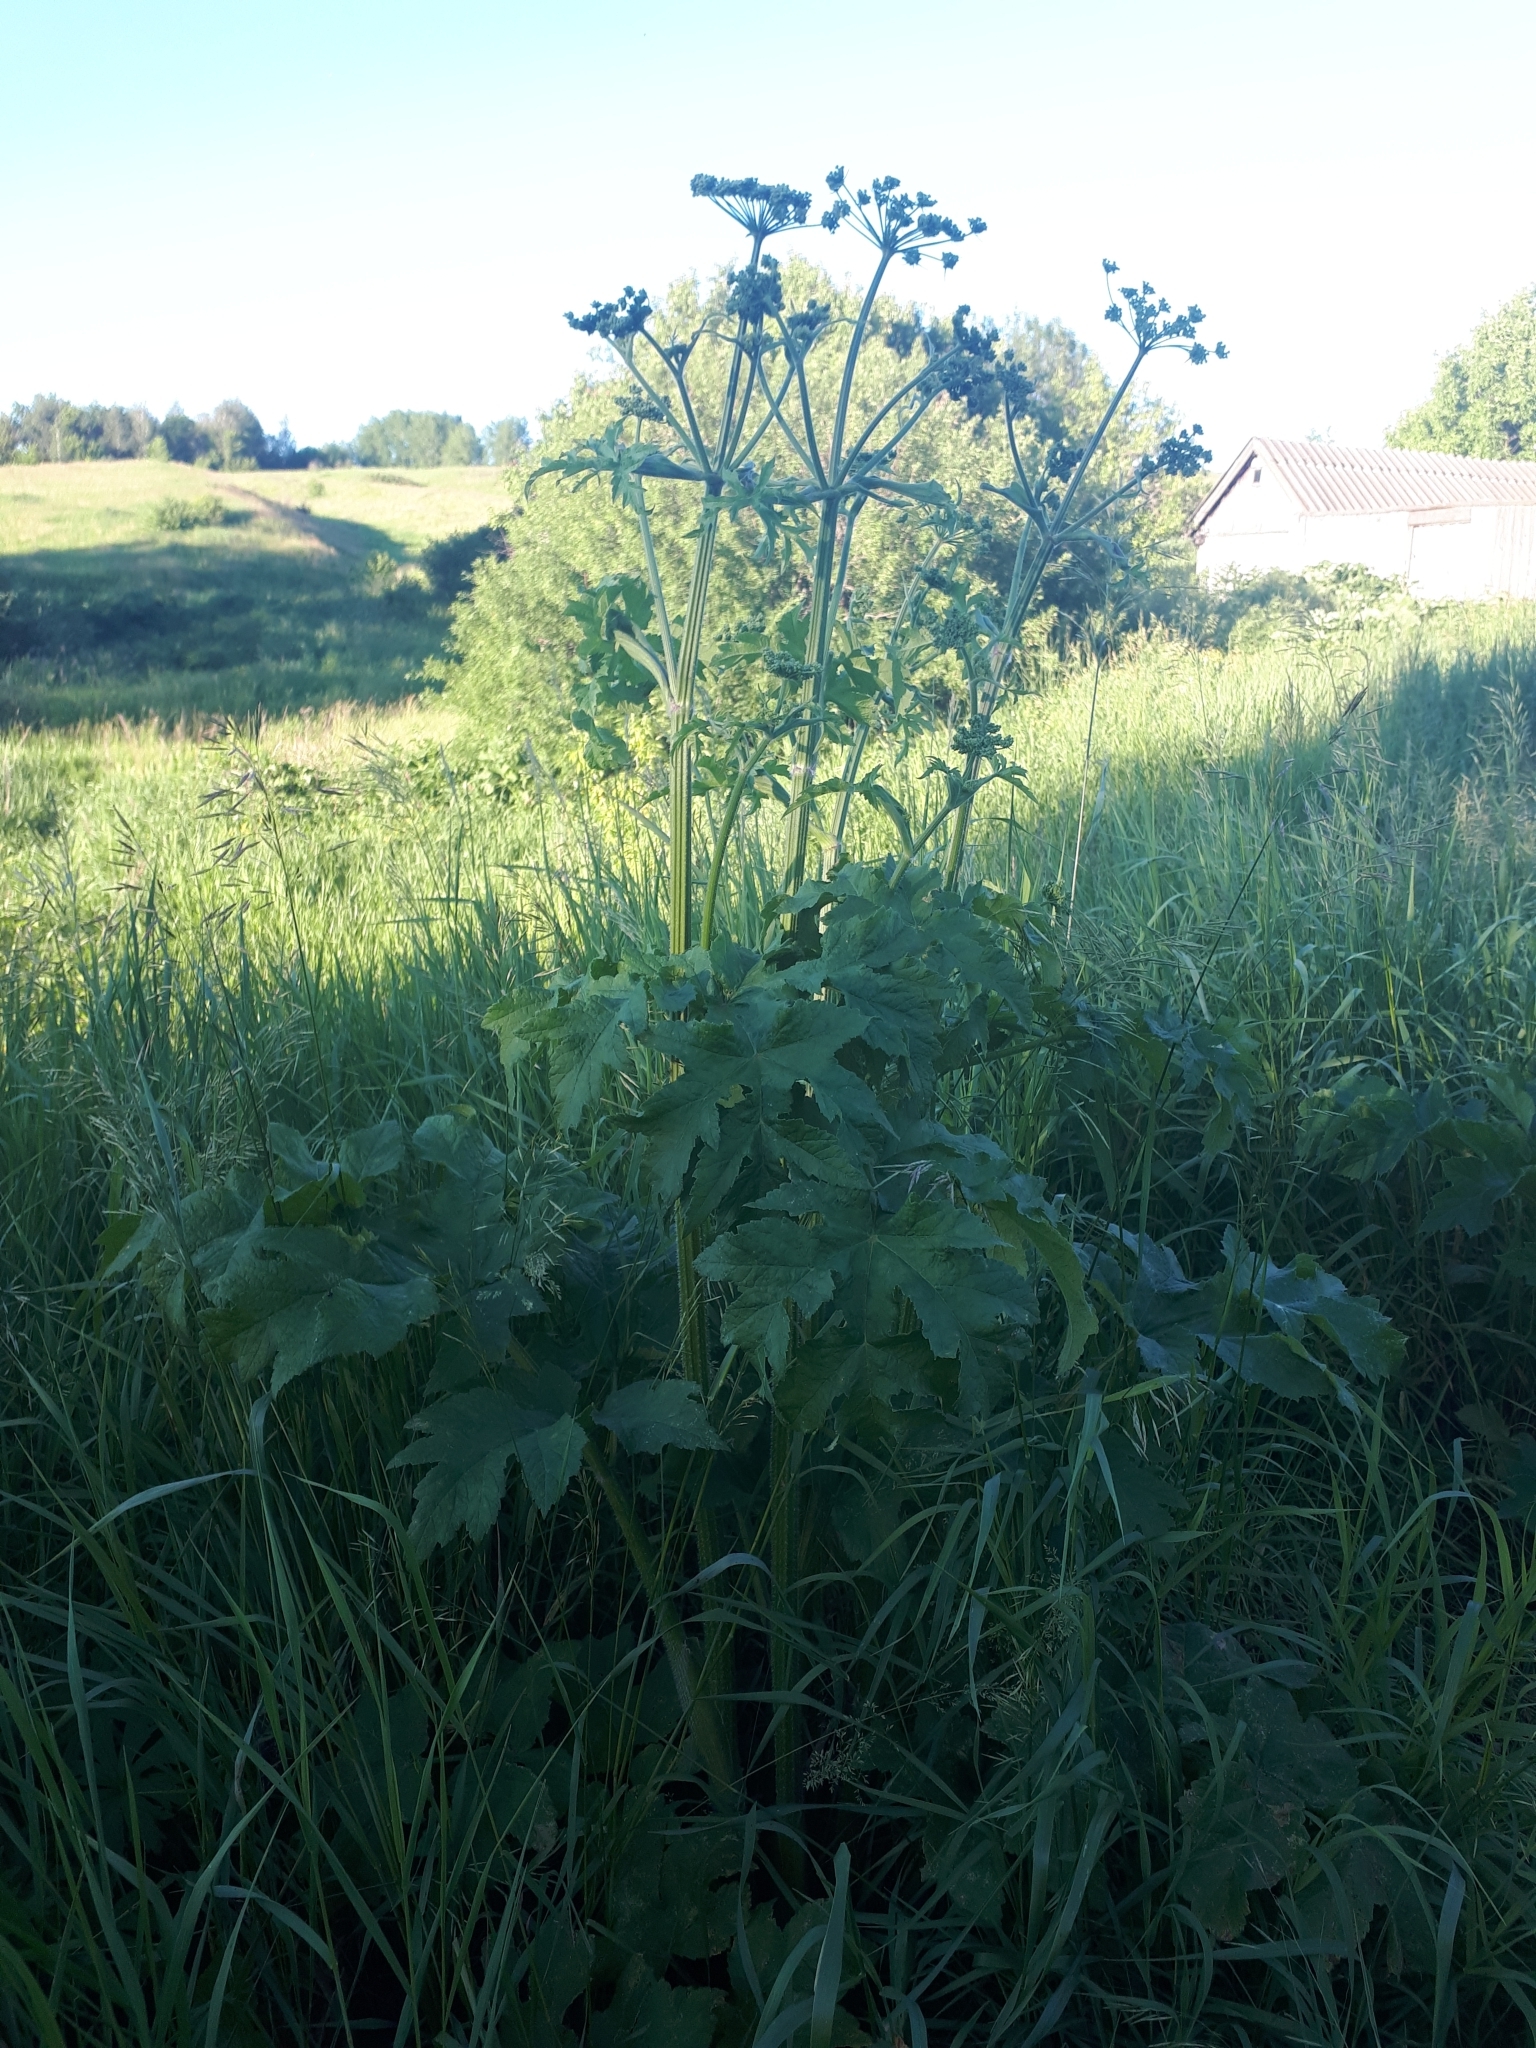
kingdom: Plantae
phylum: Tracheophyta
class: Magnoliopsida
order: Apiales
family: Apiaceae
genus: Heracleum
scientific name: Heracleum sphondylium
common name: Hogweed
